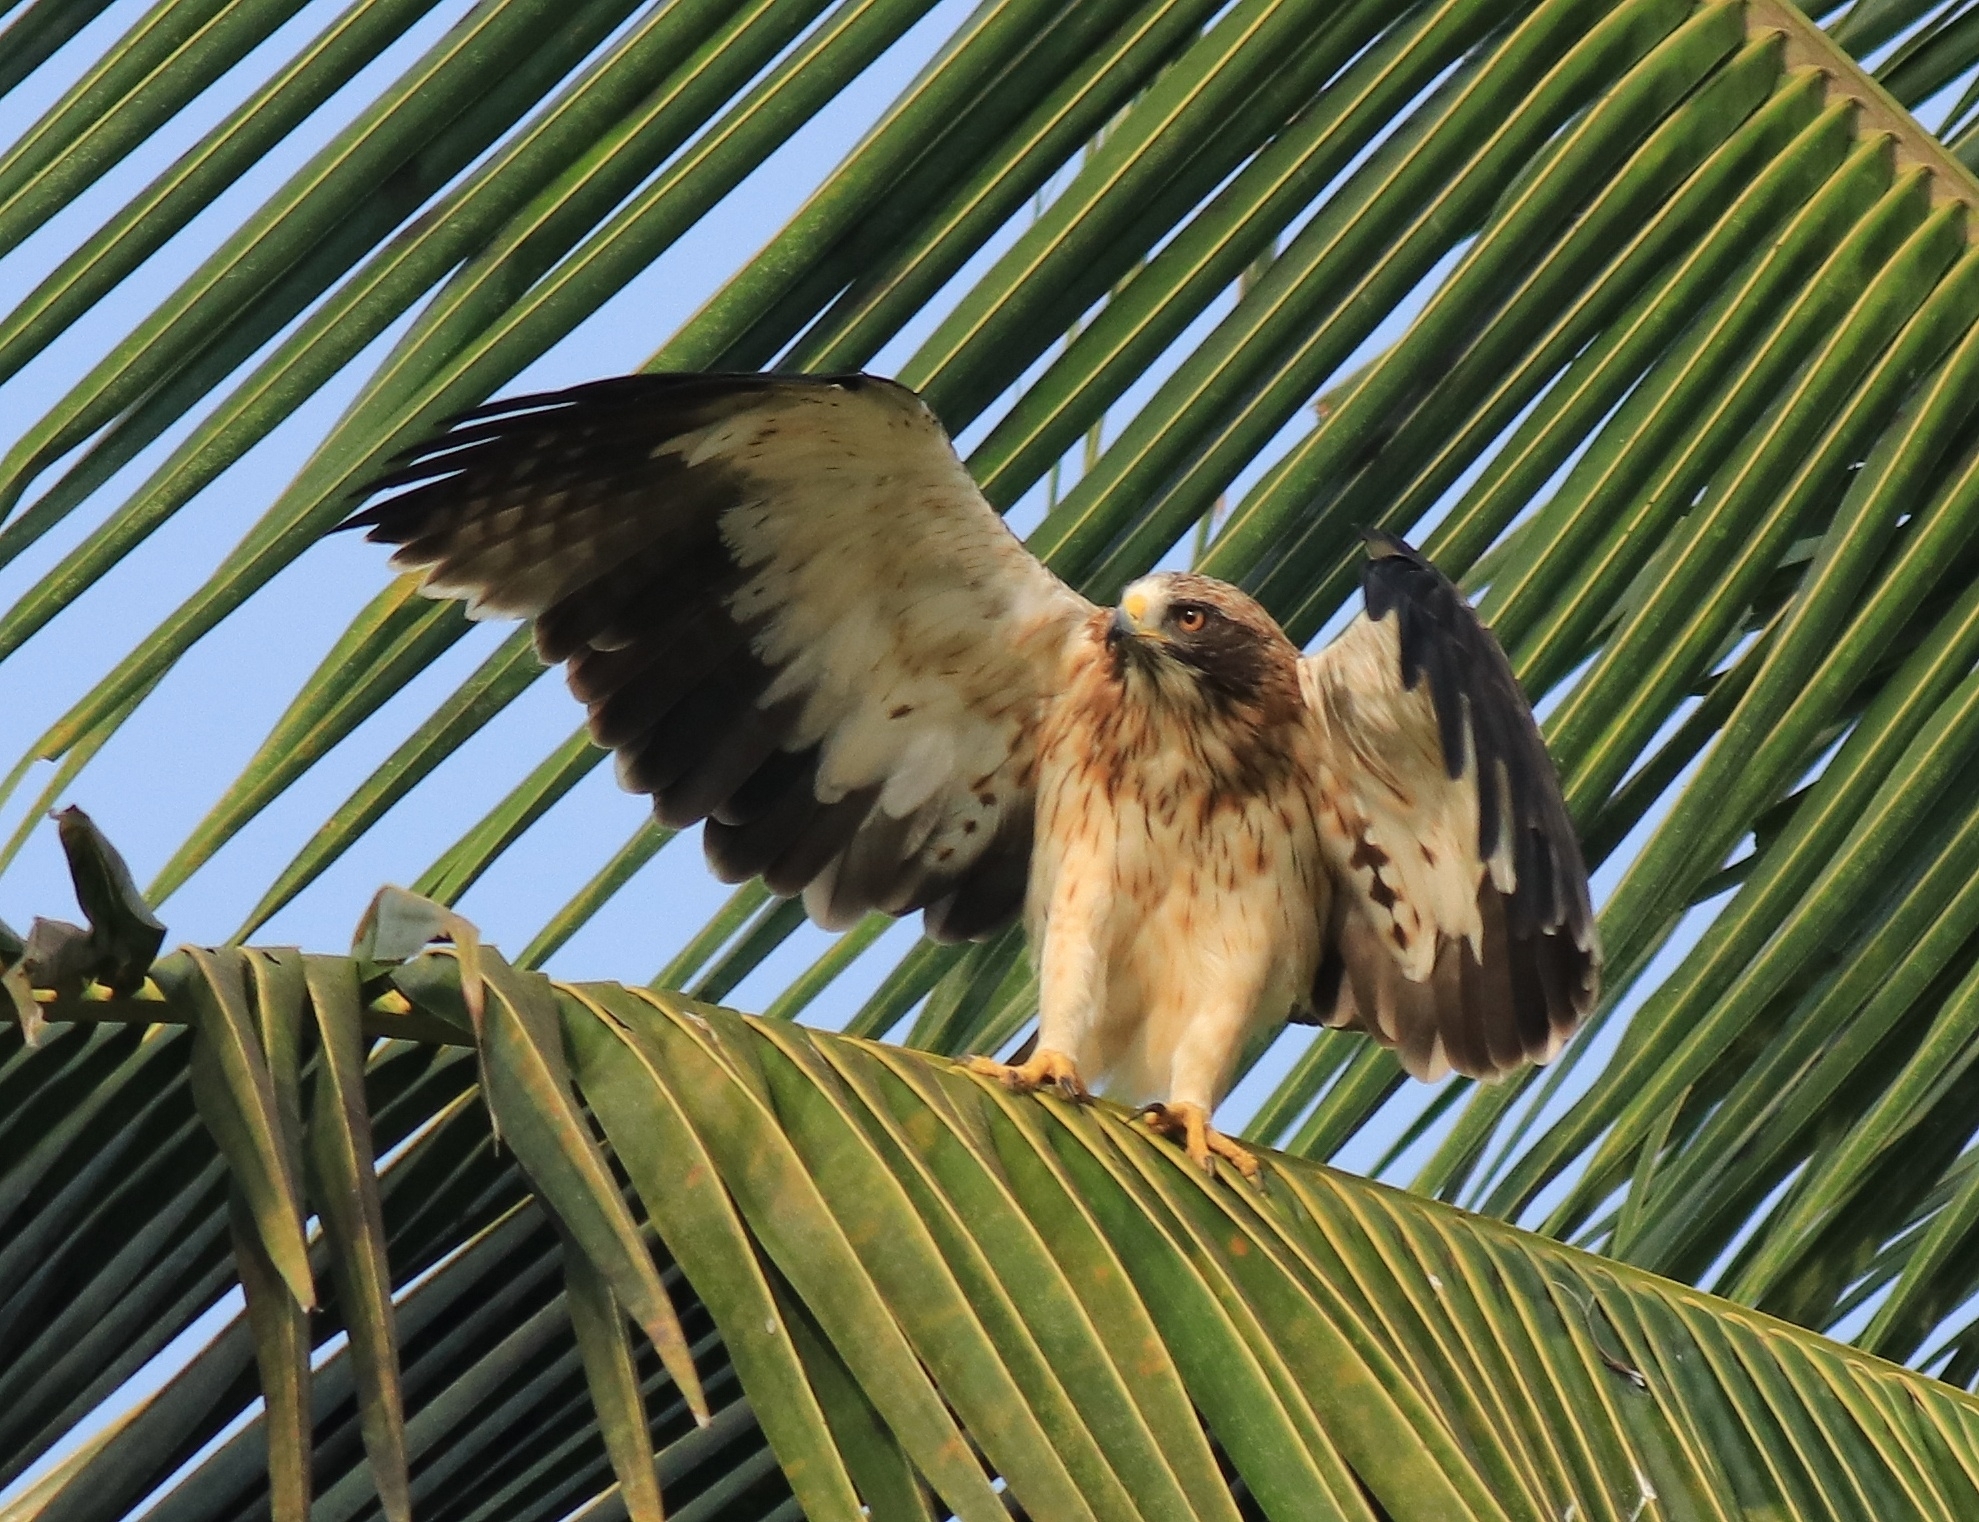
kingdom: Animalia
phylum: Chordata
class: Aves
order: Accipitriformes
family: Accipitridae
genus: Hieraaetus
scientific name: Hieraaetus pennatus
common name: Booted eagle
